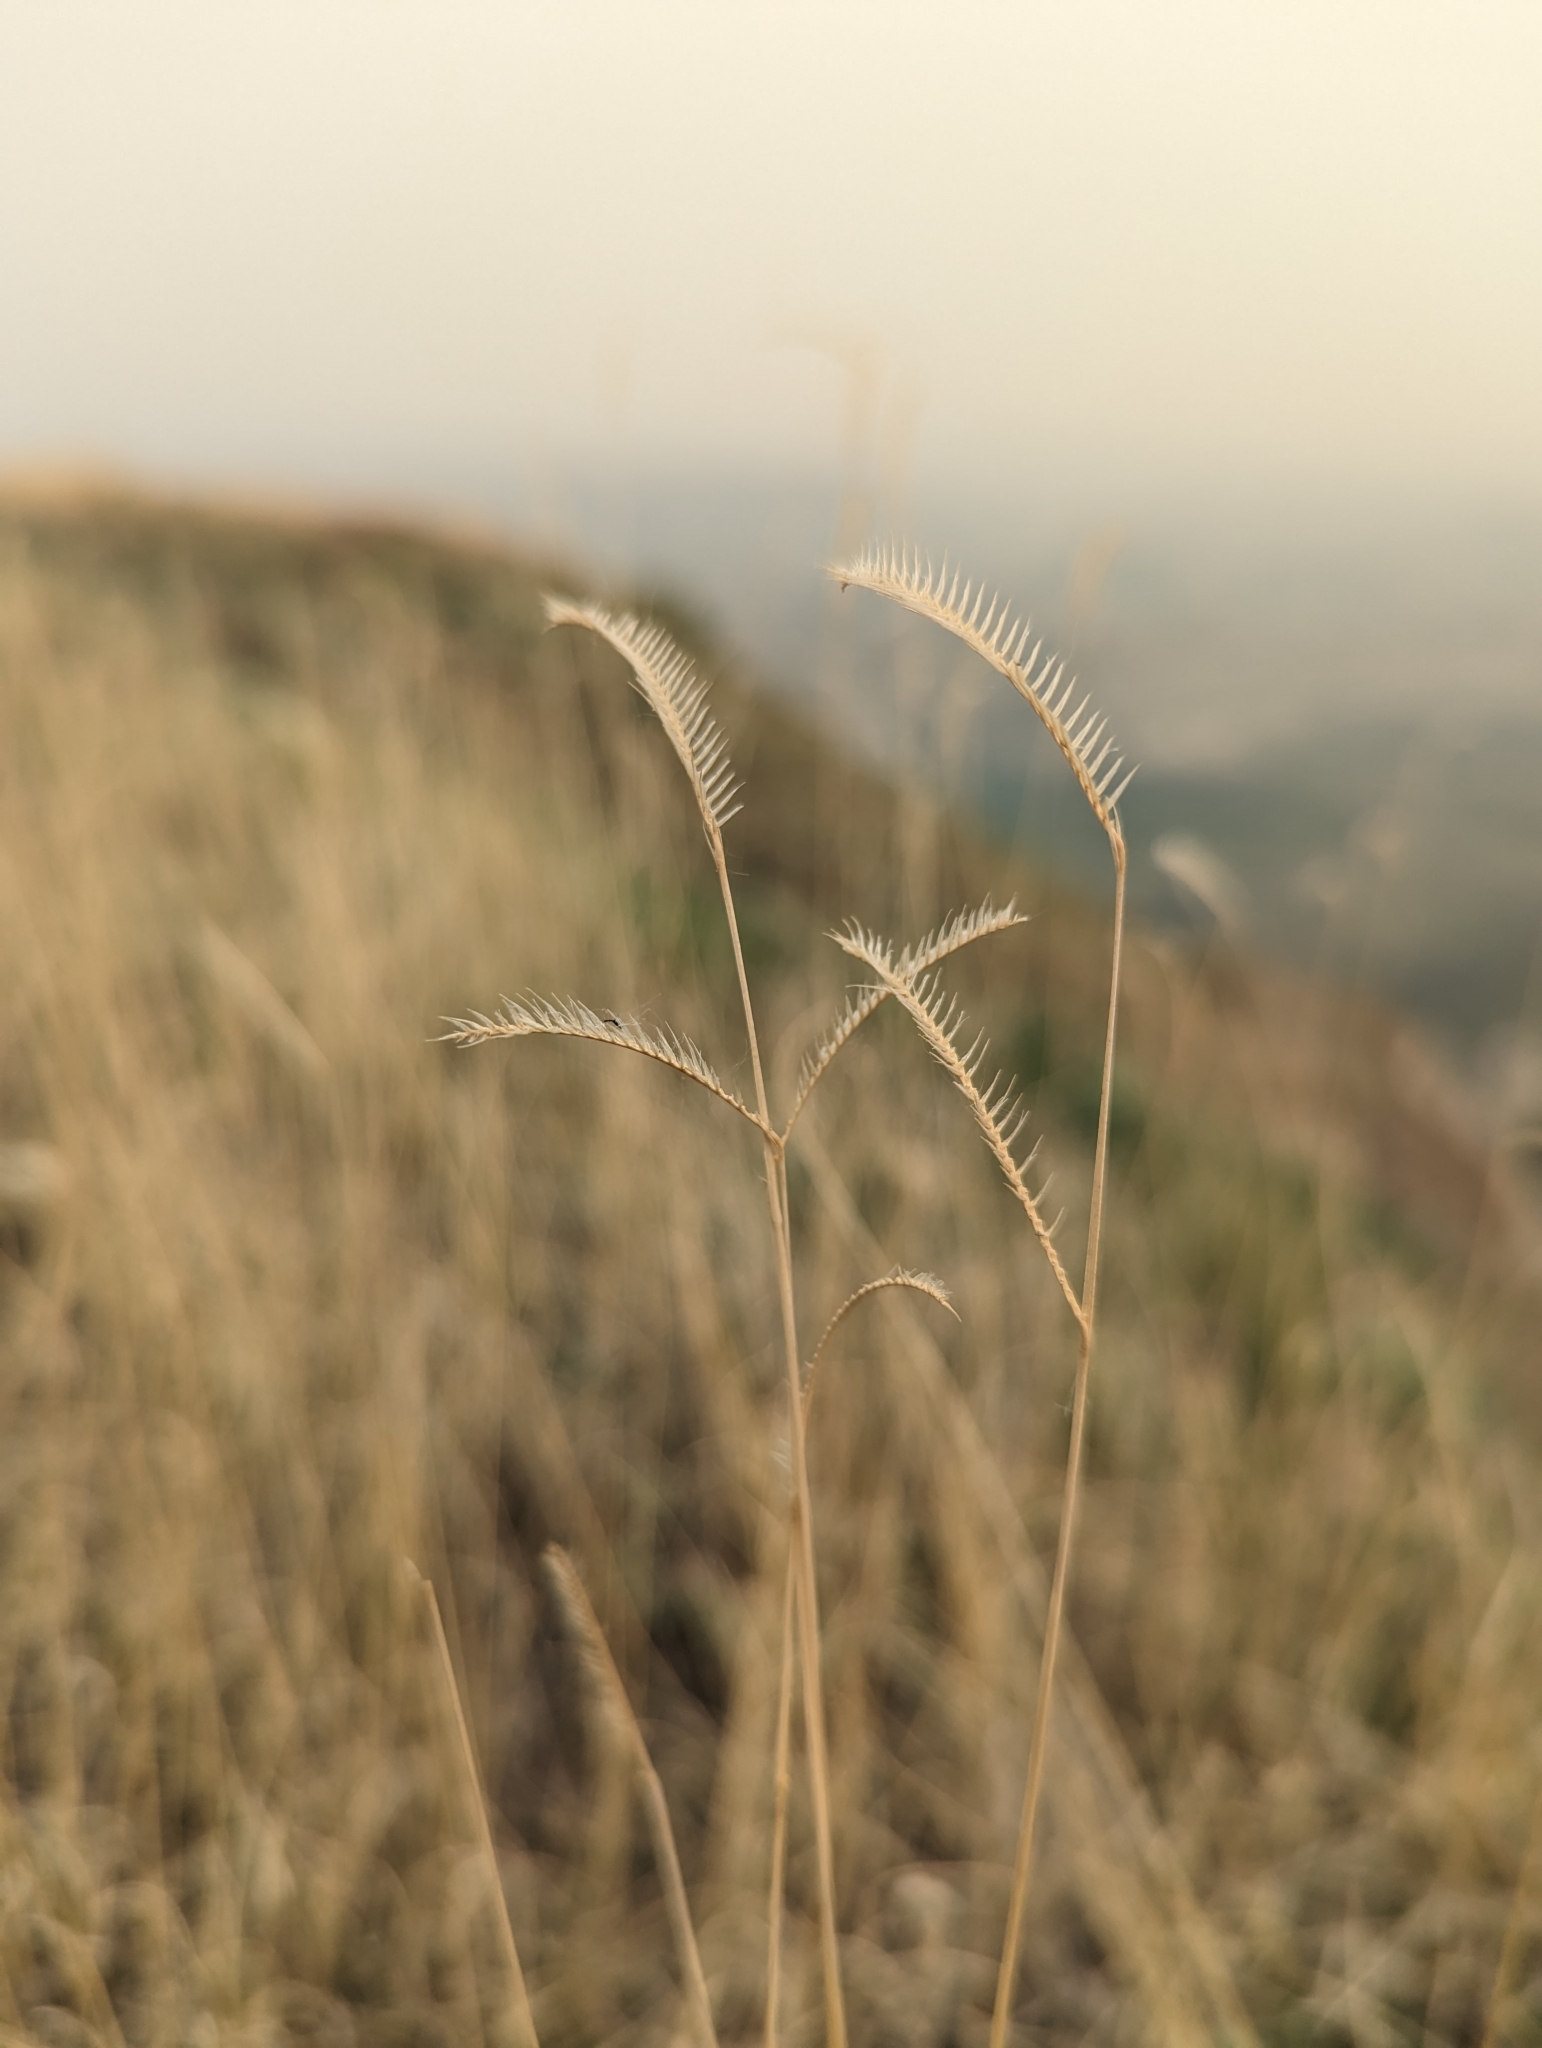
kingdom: Plantae
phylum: Tracheophyta
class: Liliopsida
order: Poales
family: Poaceae
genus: Bouteloua
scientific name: Bouteloua gracilis
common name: Blue grama
